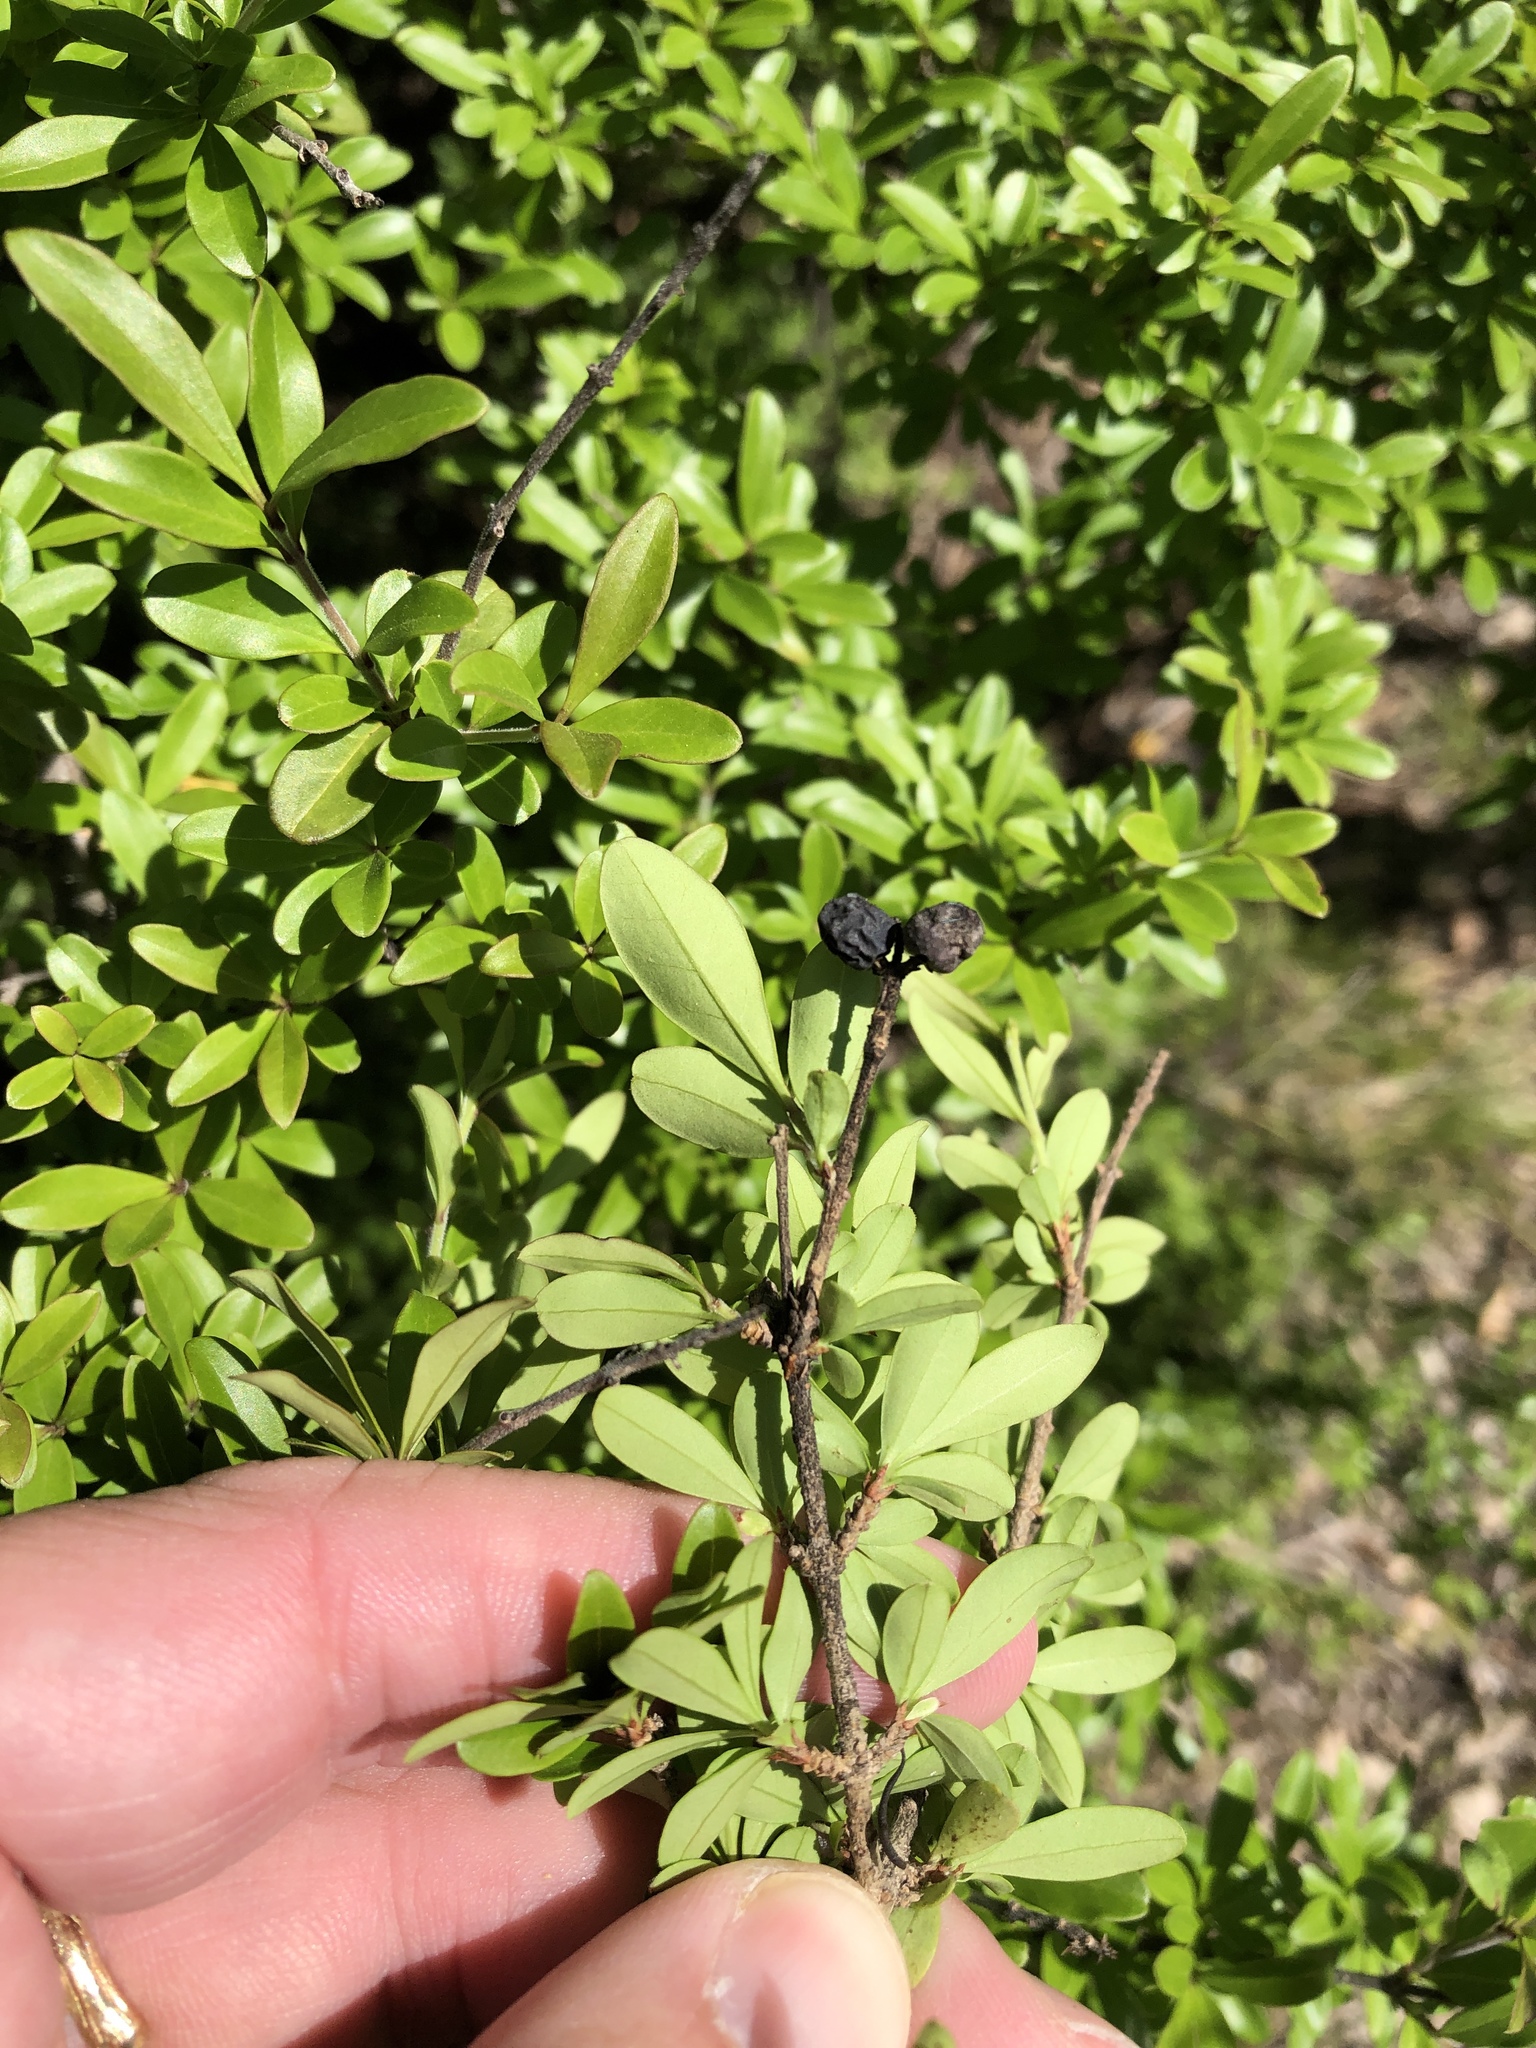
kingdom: Plantae
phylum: Tracheophyta
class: Magnoliopsida
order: Lamiales
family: Oleaceae
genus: Ligustrum
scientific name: Ligustrum quihoui
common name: Waxyleaf privet
